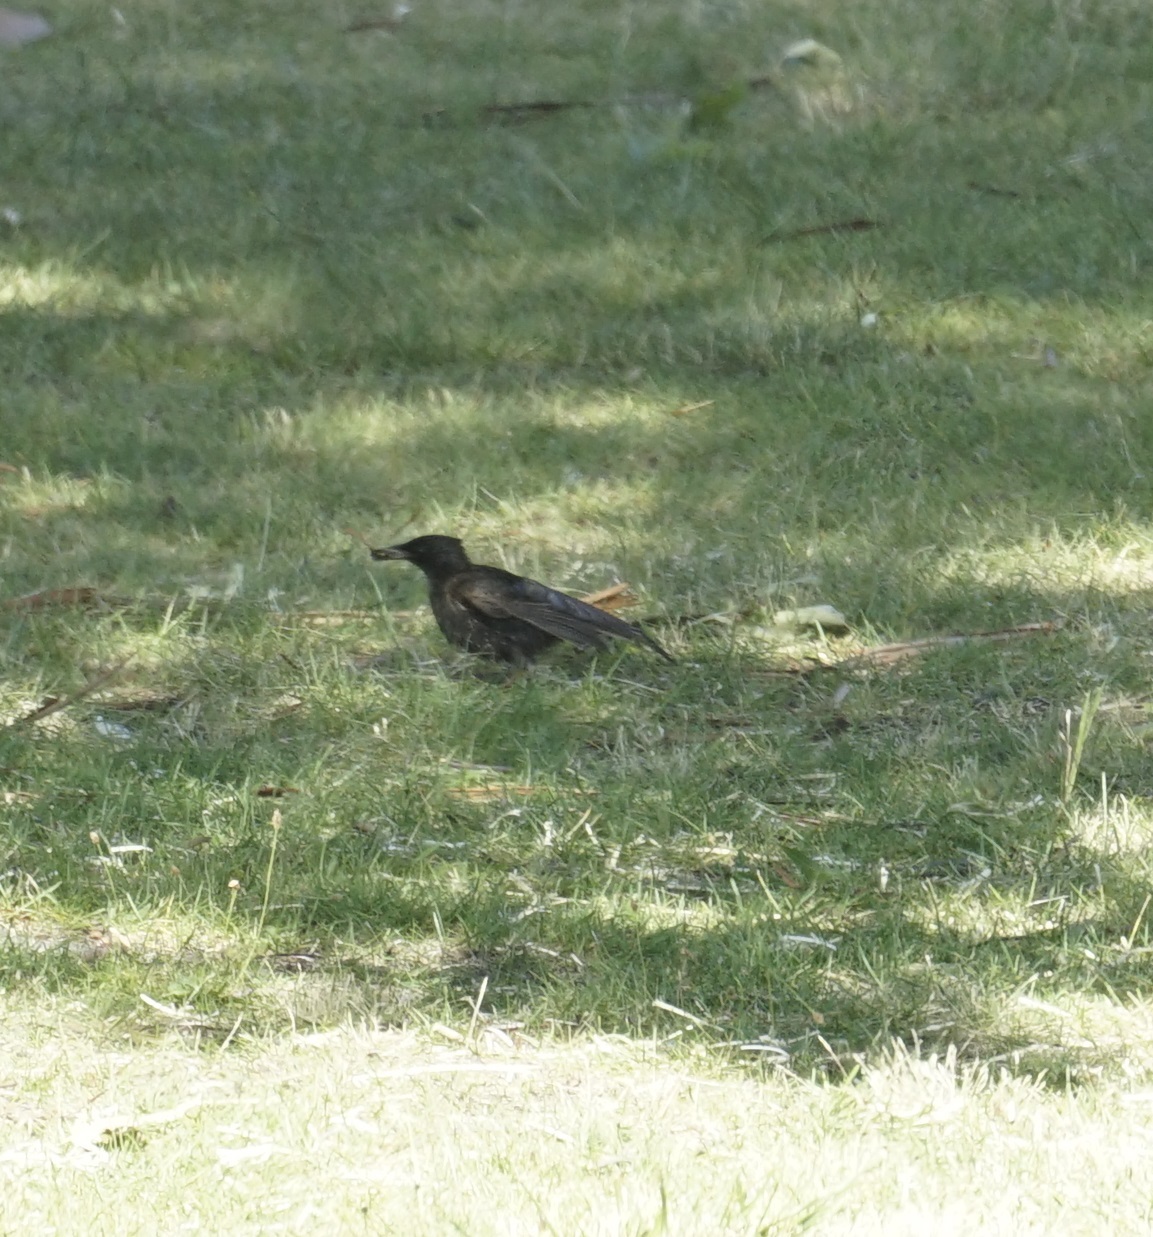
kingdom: Animalia
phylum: Chordata
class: Aves
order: Passeriformes
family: Sturnidae
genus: Sturnus
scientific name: Sturnus vulgaris
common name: Common starling
